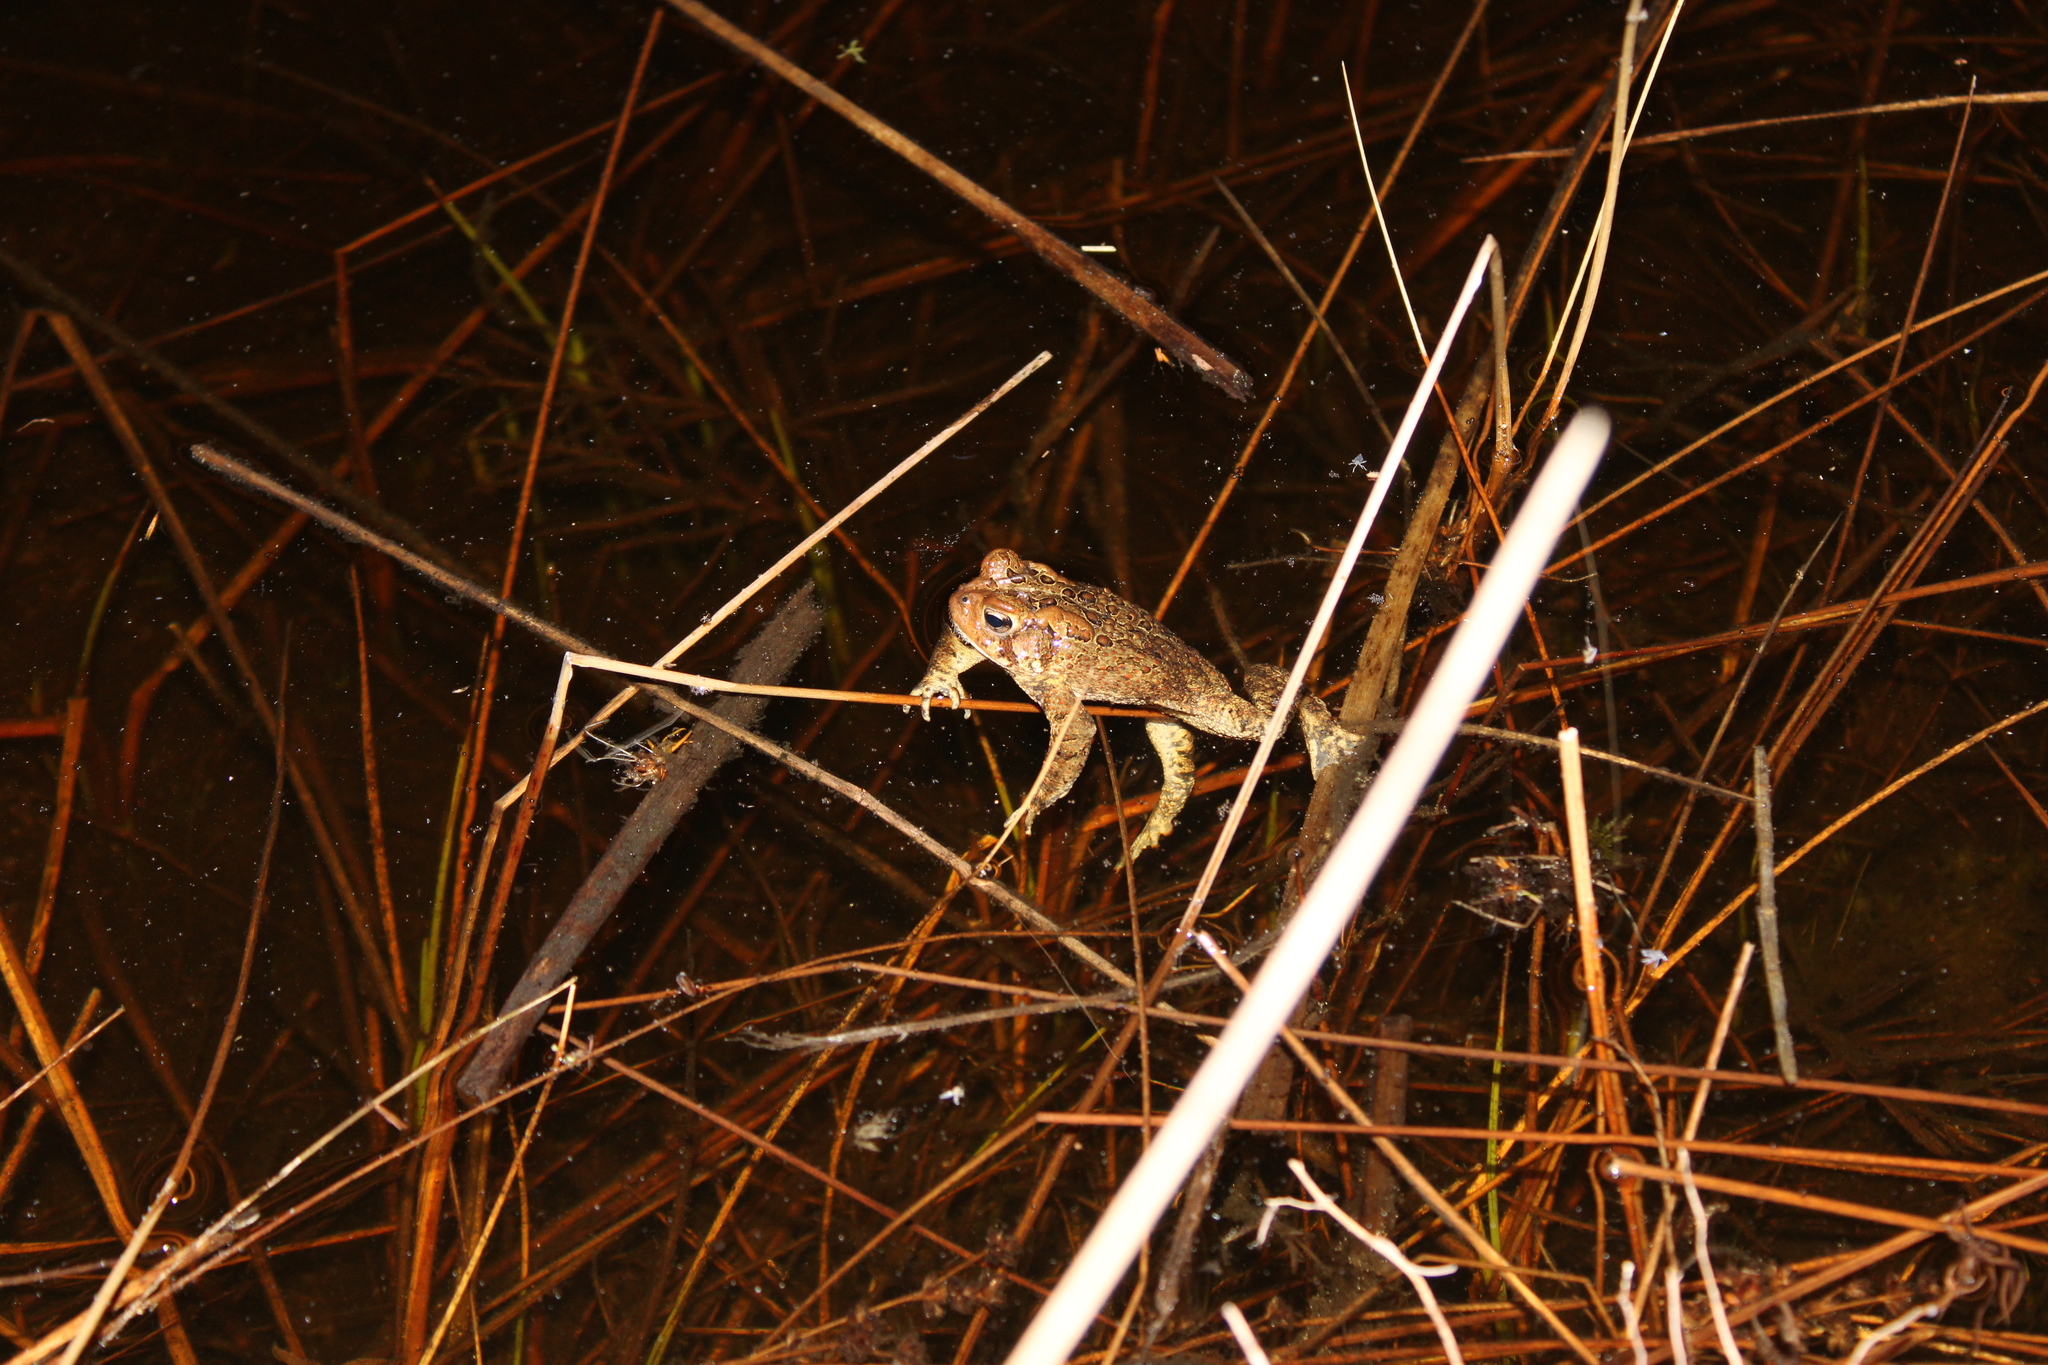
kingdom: Animalia
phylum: Chordata
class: Amphibia
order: Anura
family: Bufonidae
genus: Anaxyrus
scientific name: Anaxyrus americanus
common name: American toad
